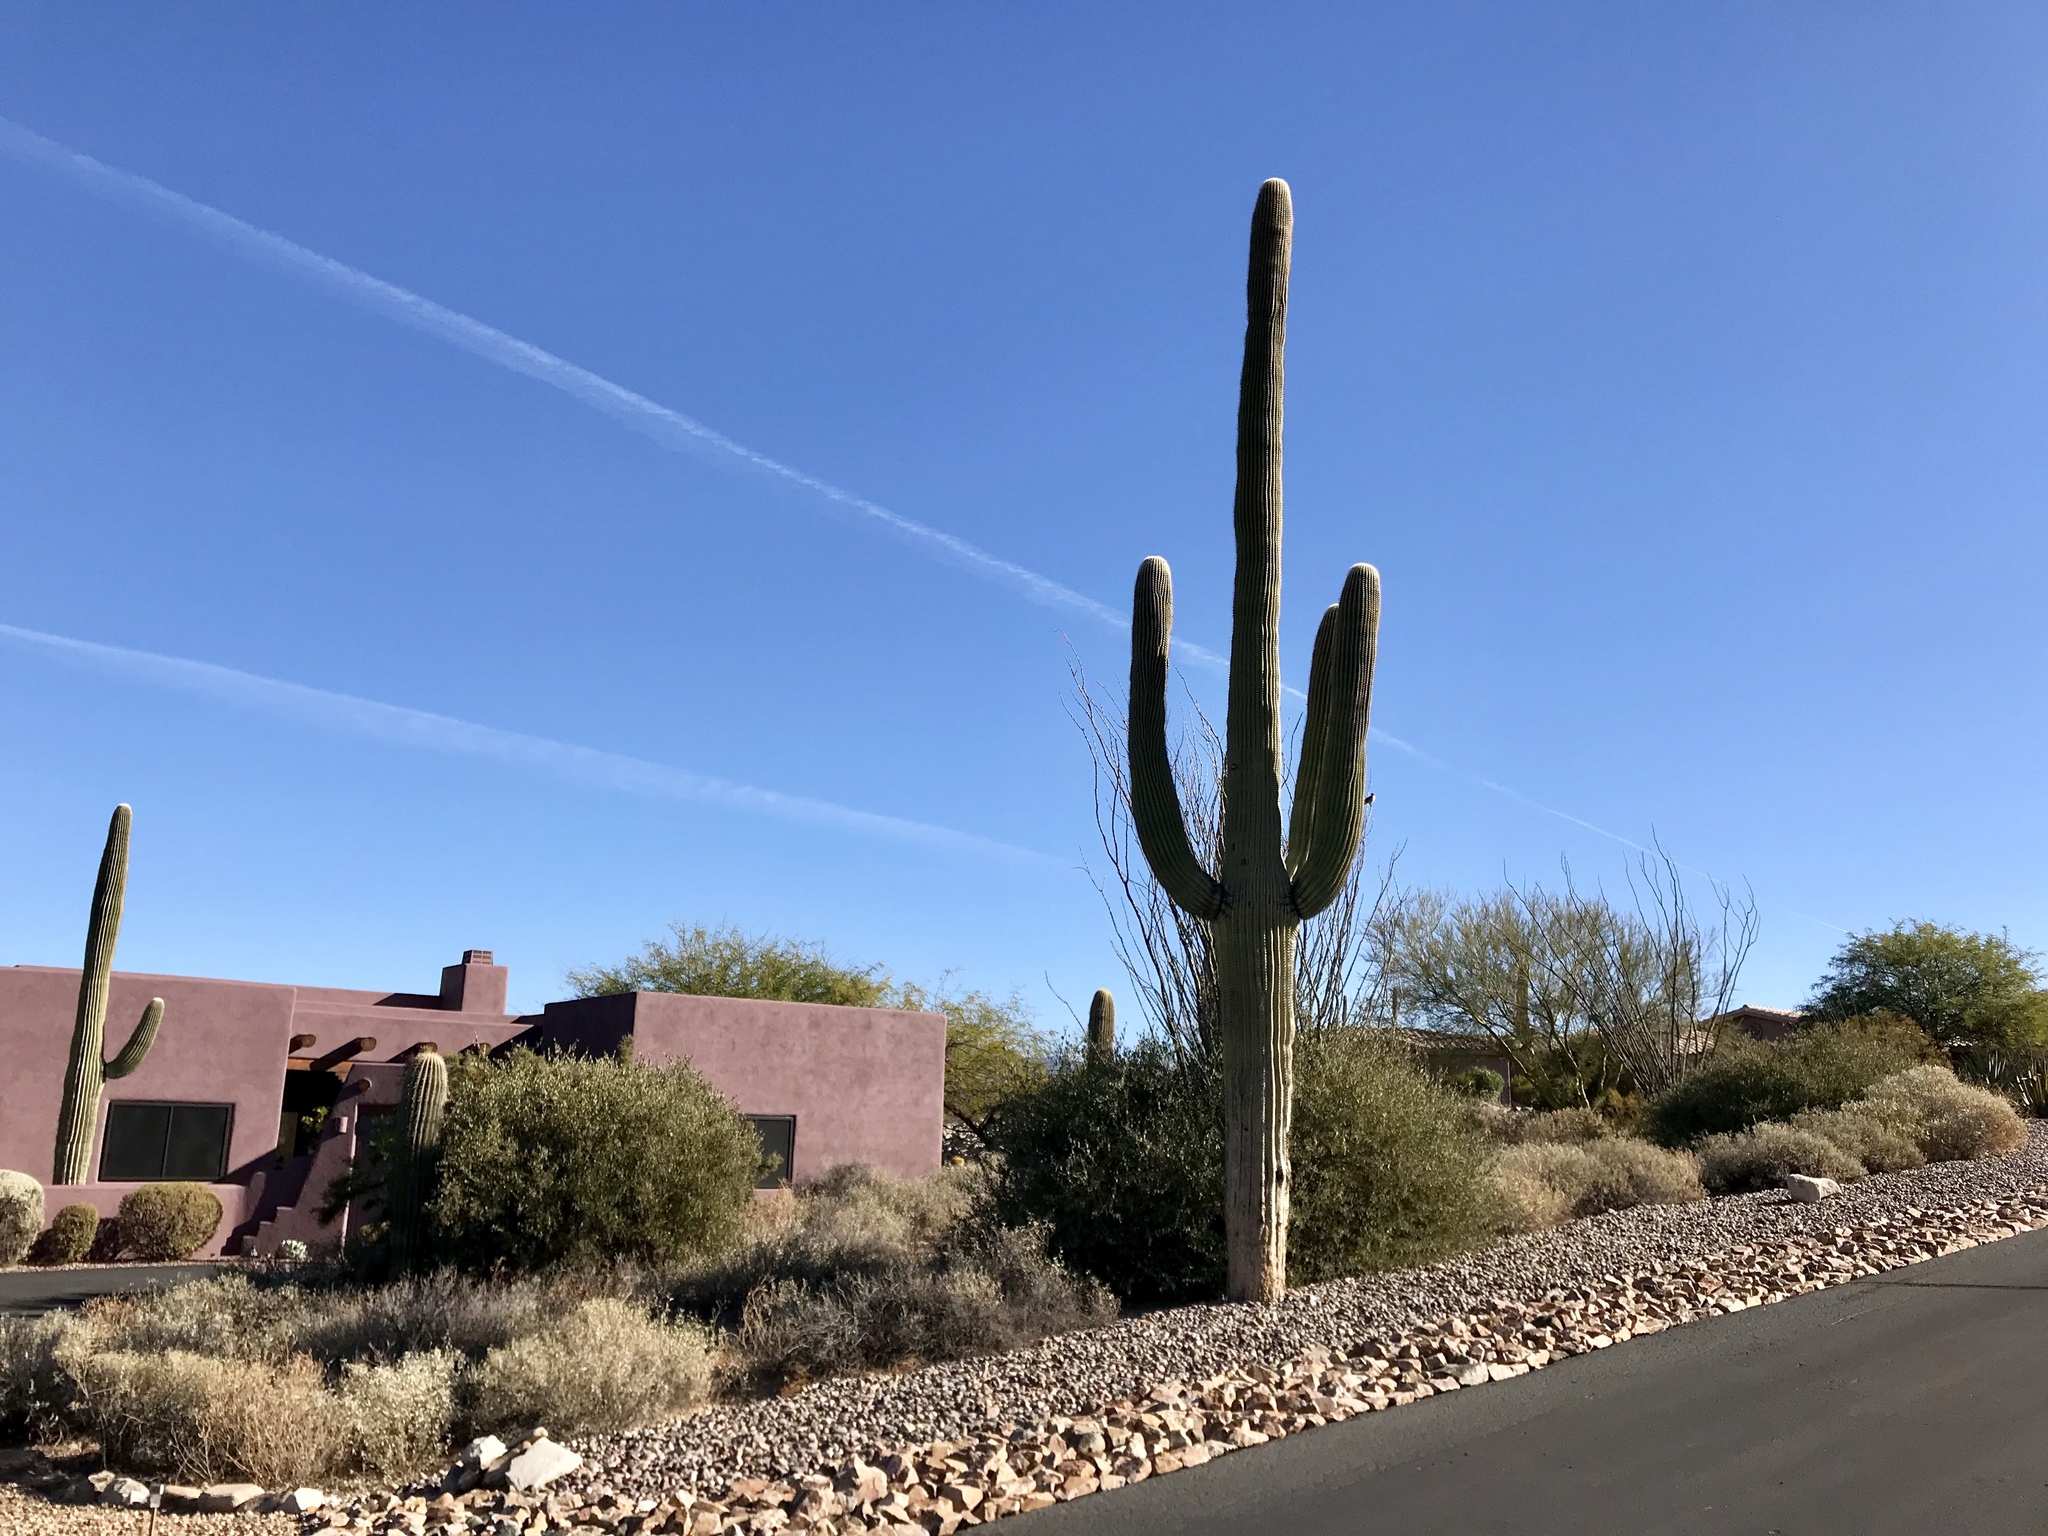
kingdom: Plantae
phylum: Tracheophyta
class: Magnoliopsida
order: Caryophyllales
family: Cactaceae
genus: Carnegiea
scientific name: Carnegiea gigantea
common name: Saguaro
